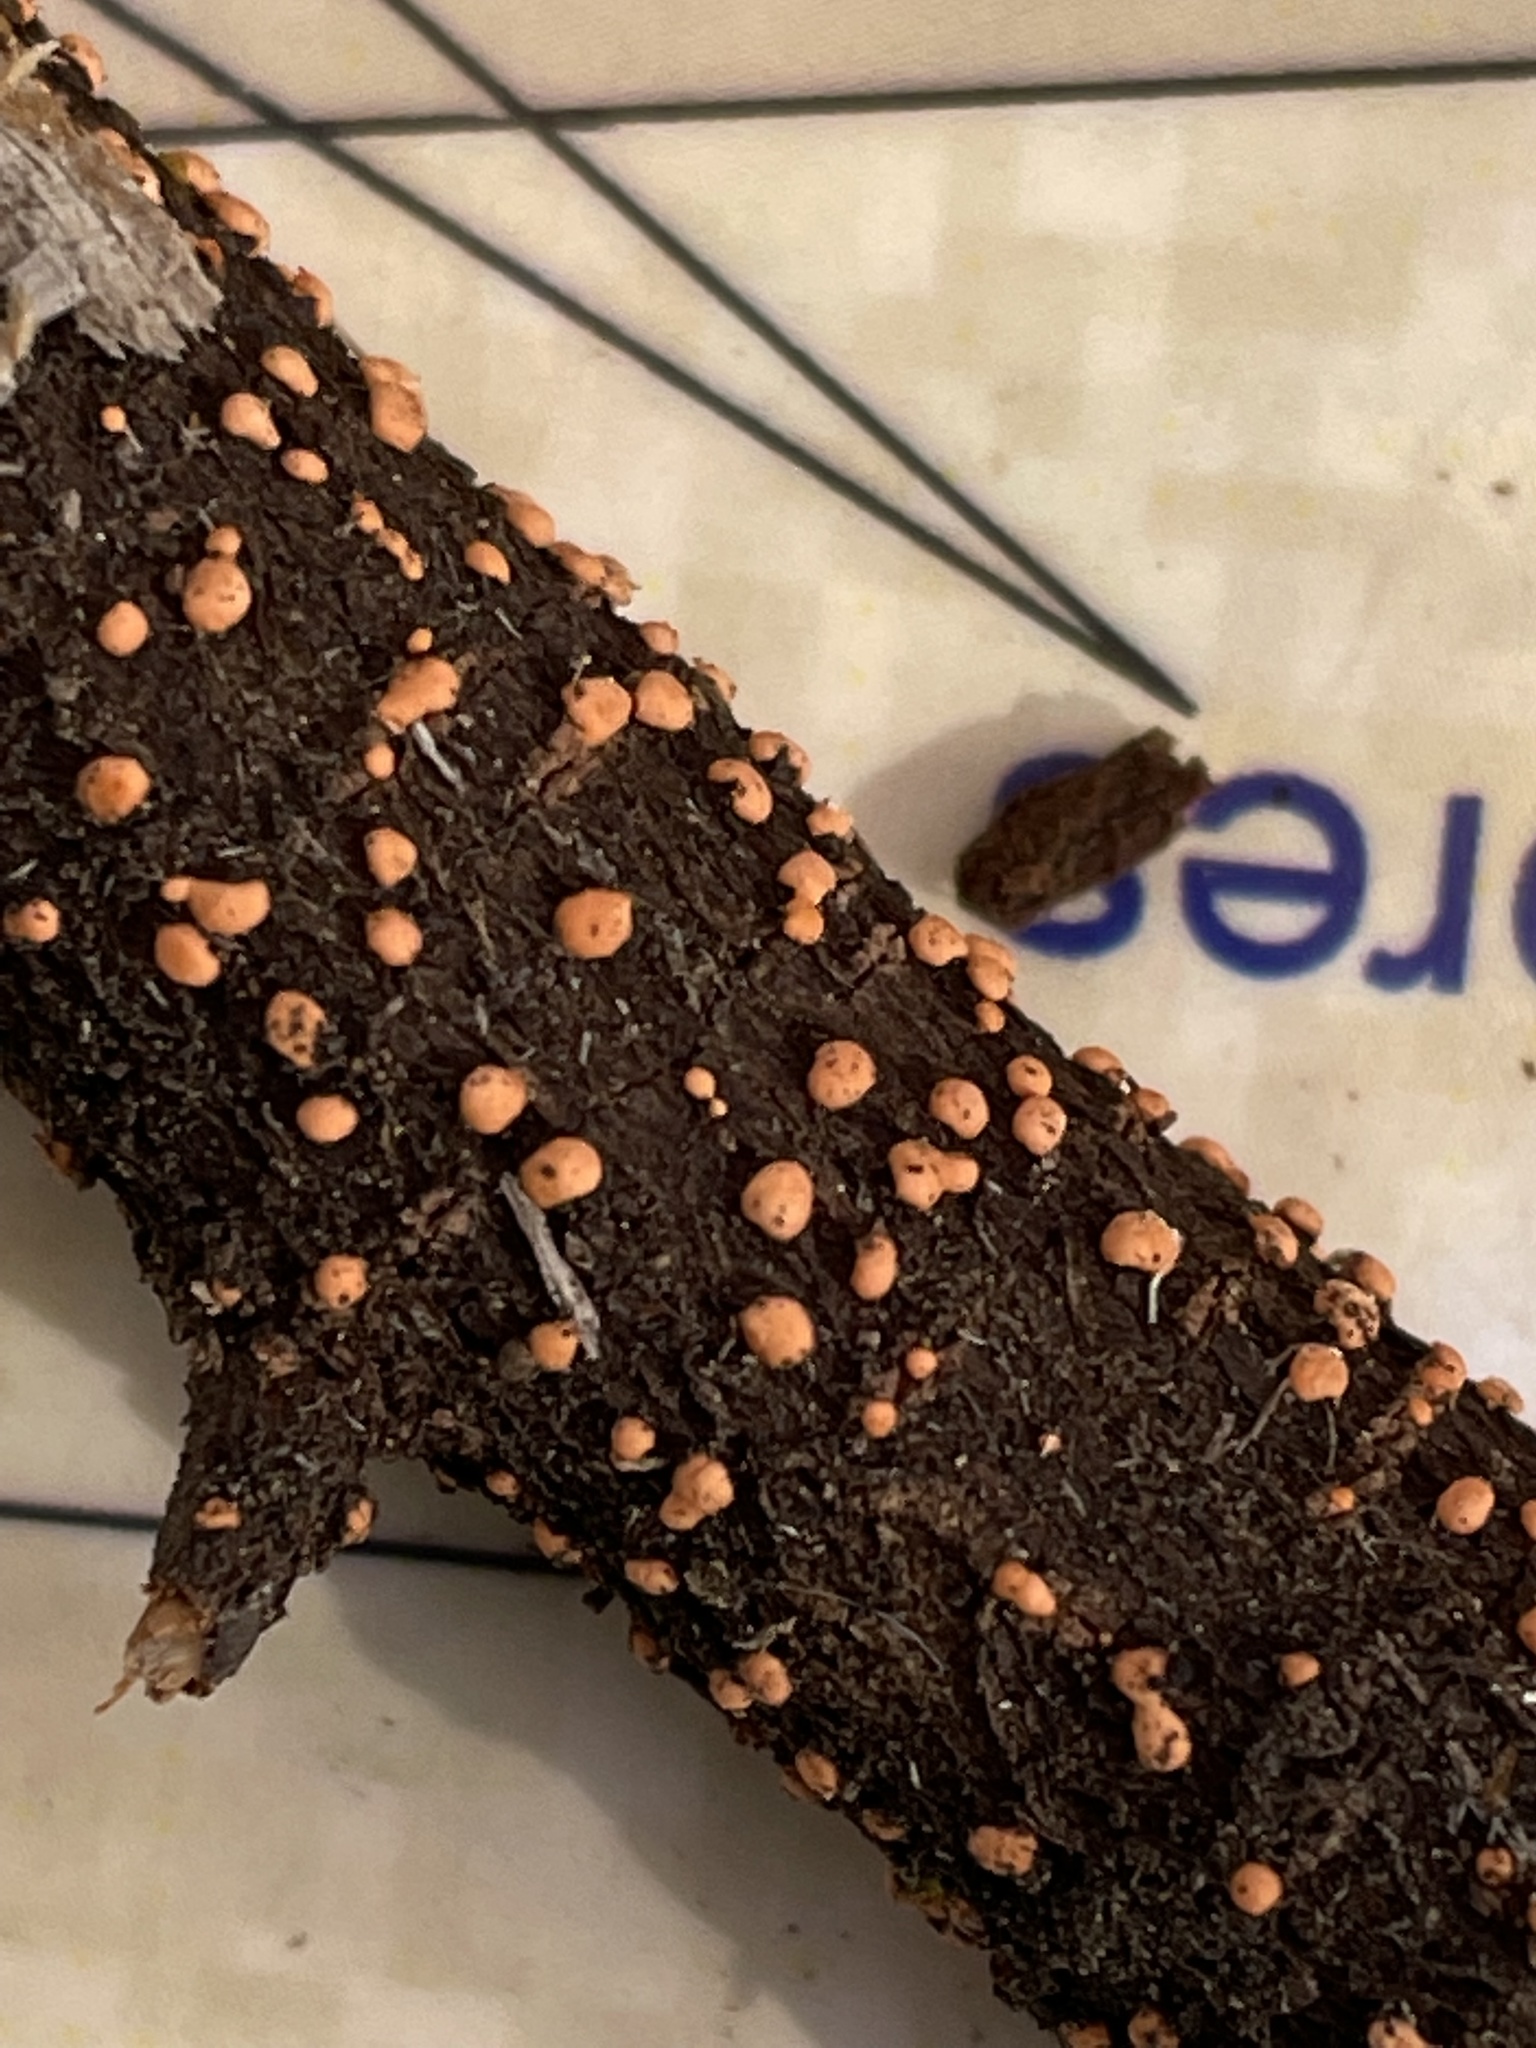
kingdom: Fungi
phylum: Ascomycota
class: Sordariomycetes
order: Hypocreales
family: Nectriaceae
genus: Nectria
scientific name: Nectria cinnabarina
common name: Coral spot
